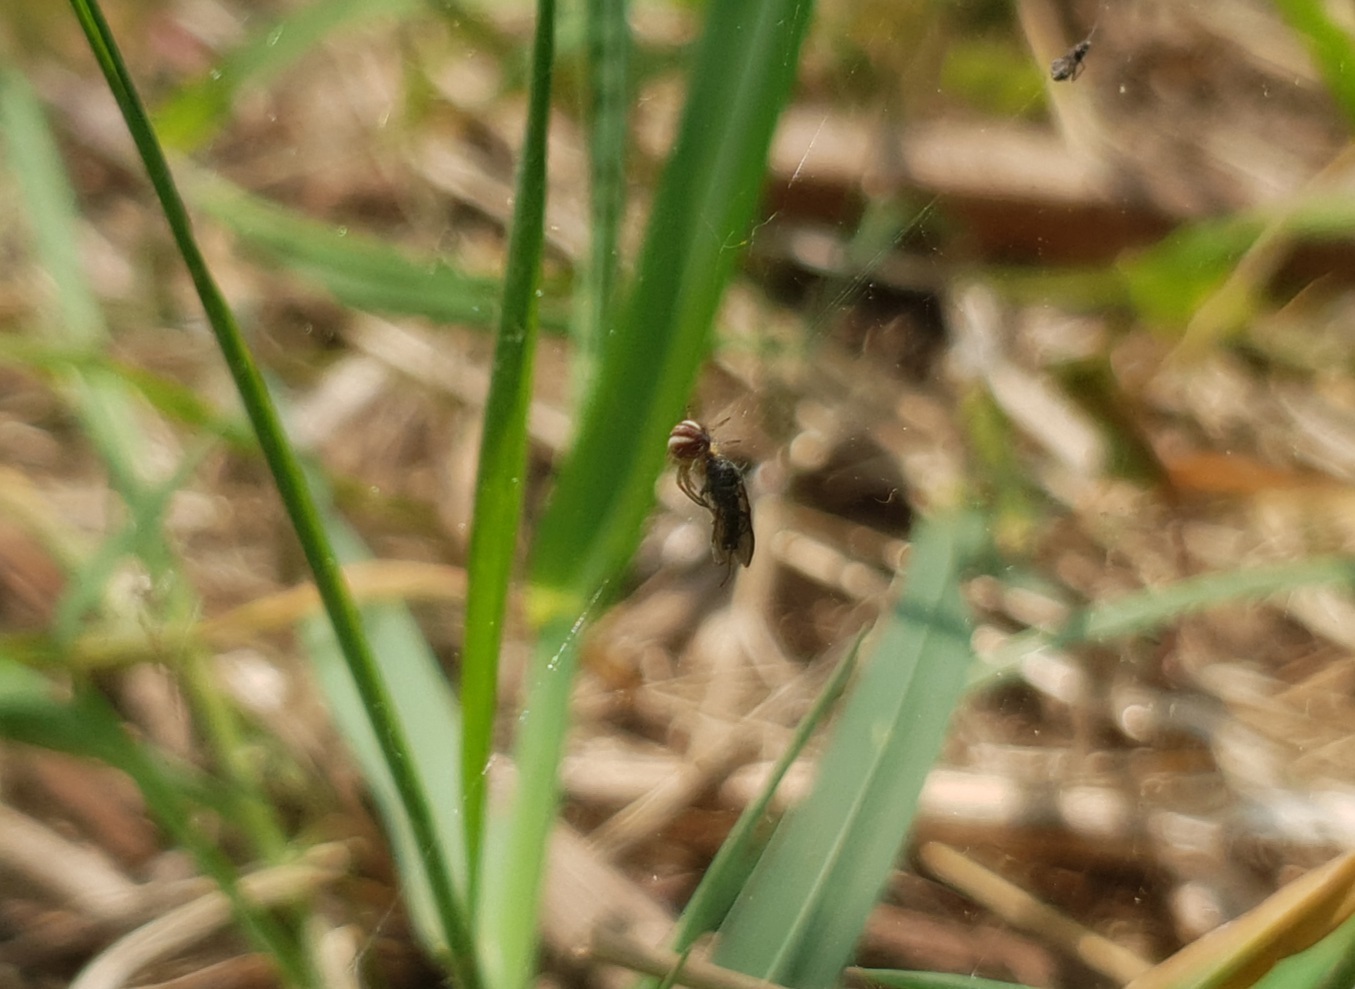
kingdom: Animalia
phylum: Arthropoda
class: Arachnida
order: Araneae
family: Araneidae
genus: Mangora
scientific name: Mangora acalypha
